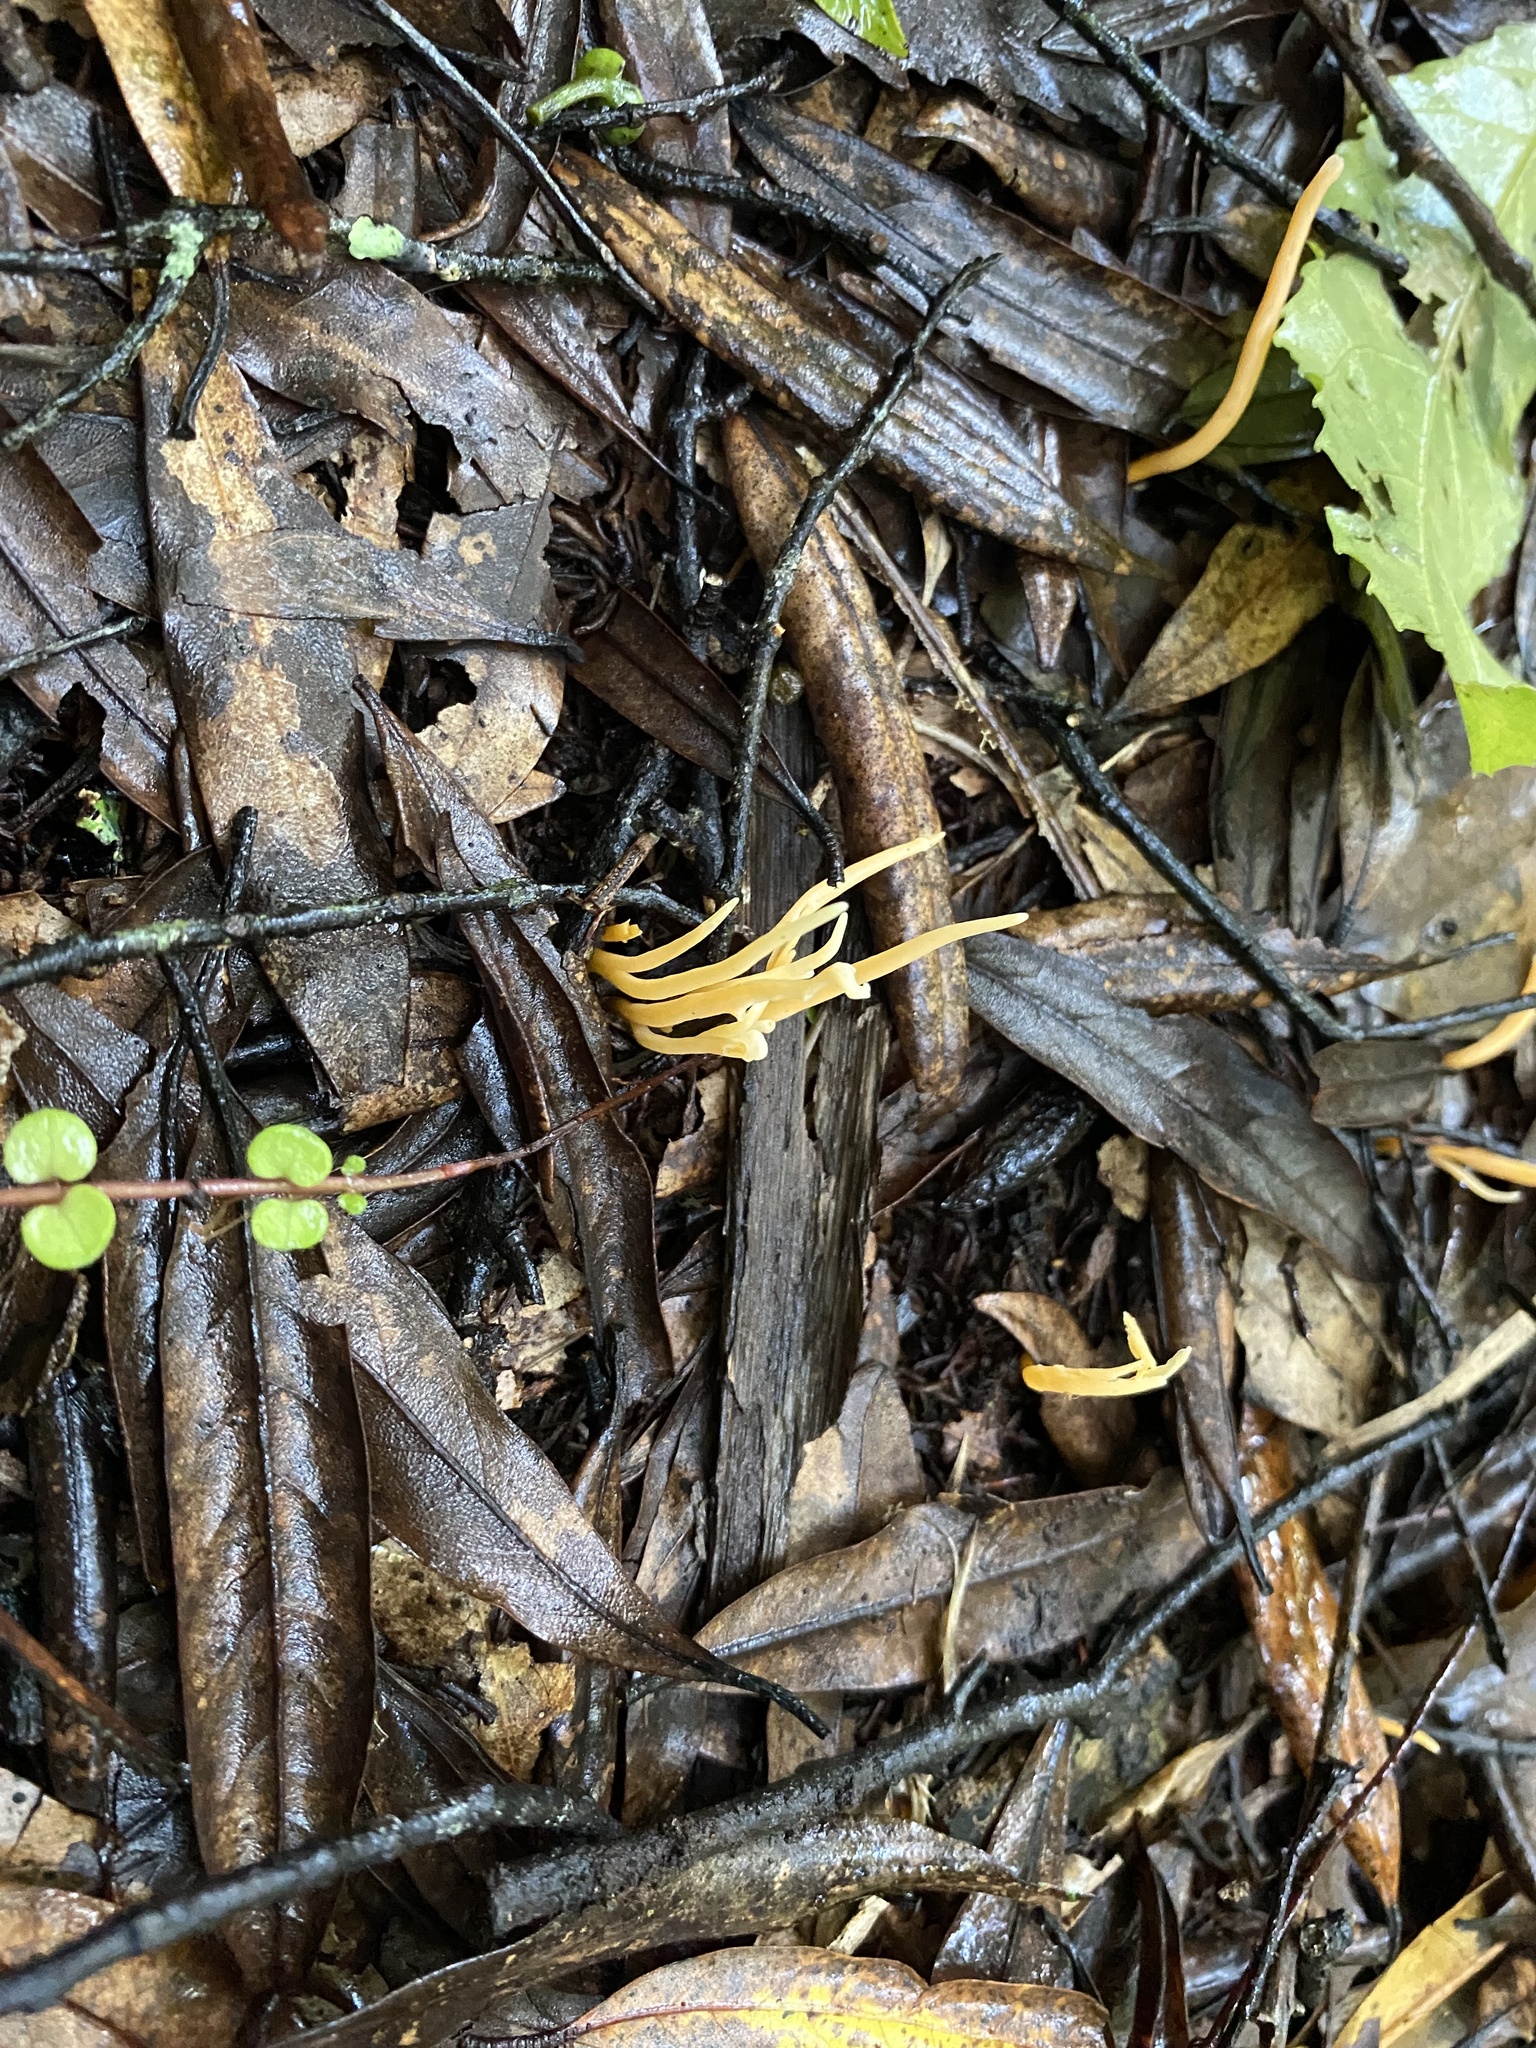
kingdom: Fungi
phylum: Basidiomycota
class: Agaricomycetes
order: Agaricales
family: Clavariaceae
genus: Clavulinopsis
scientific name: Clavulinopsis
